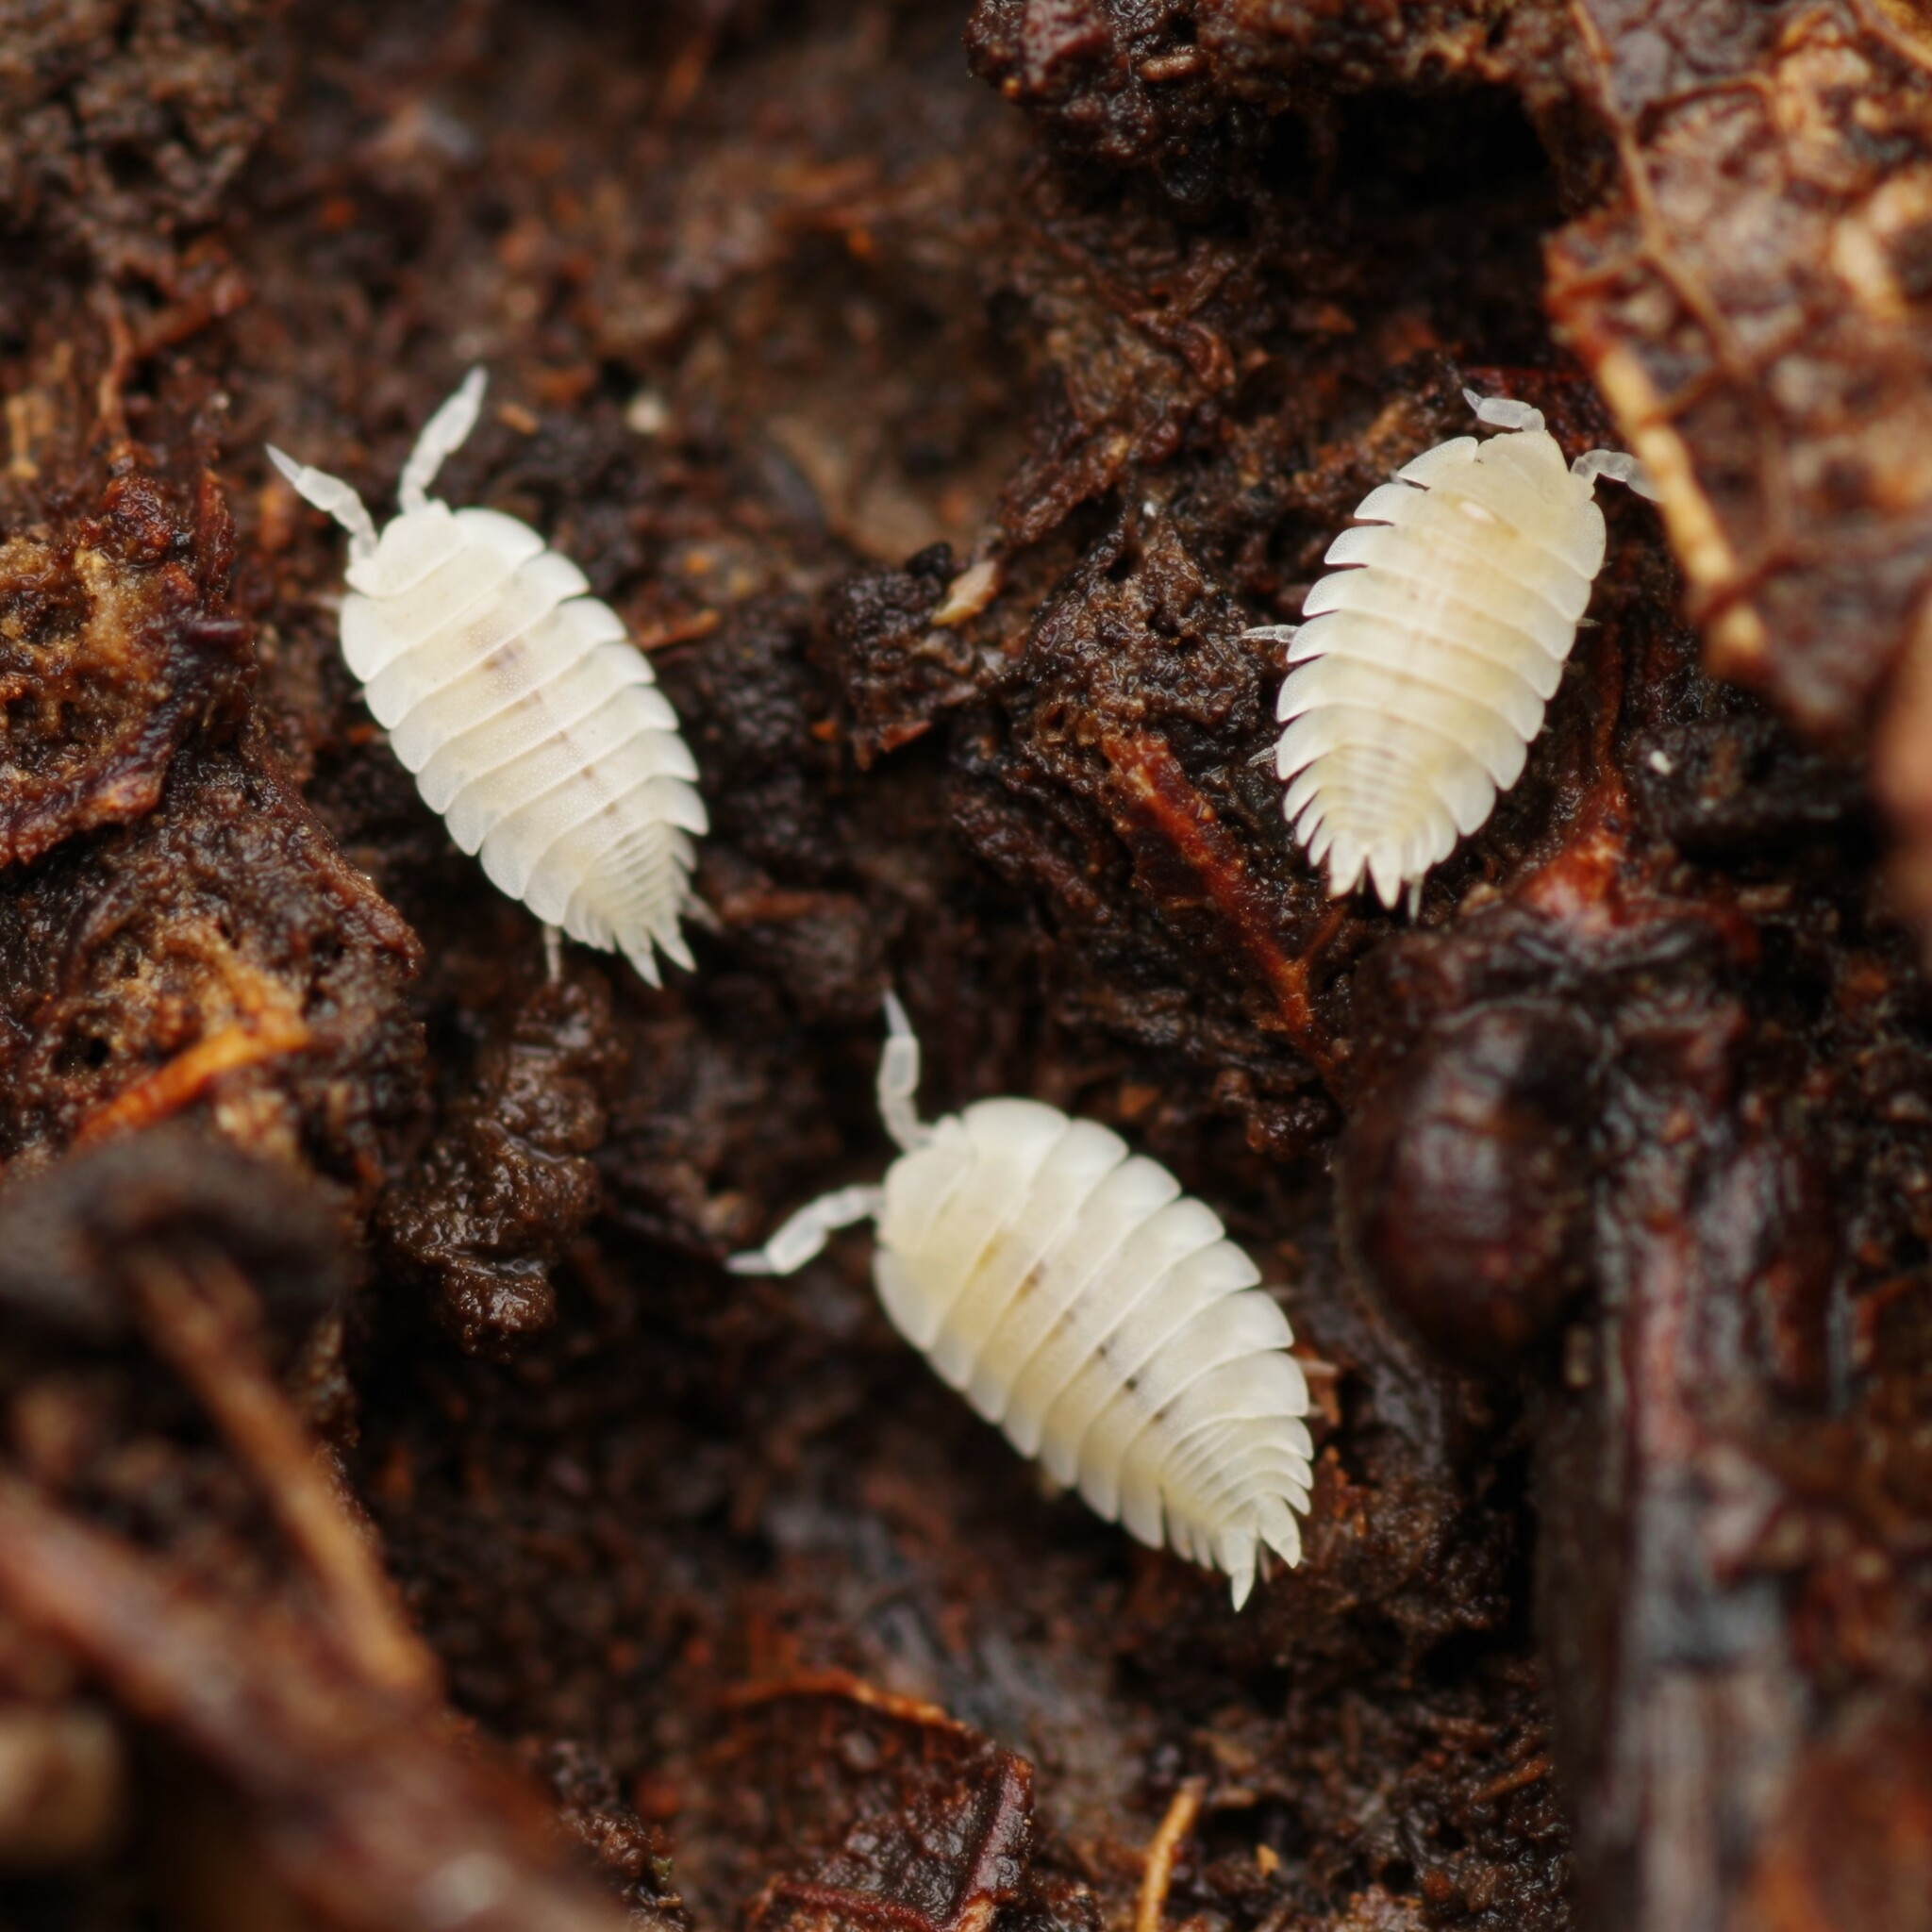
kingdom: Animalia
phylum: Arthropoda
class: Malacostraca
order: Isopoda
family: Platyarthridae
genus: Platyarthrus
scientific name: Platyarthrus hoffmannseggii
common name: Ant woodlouse
